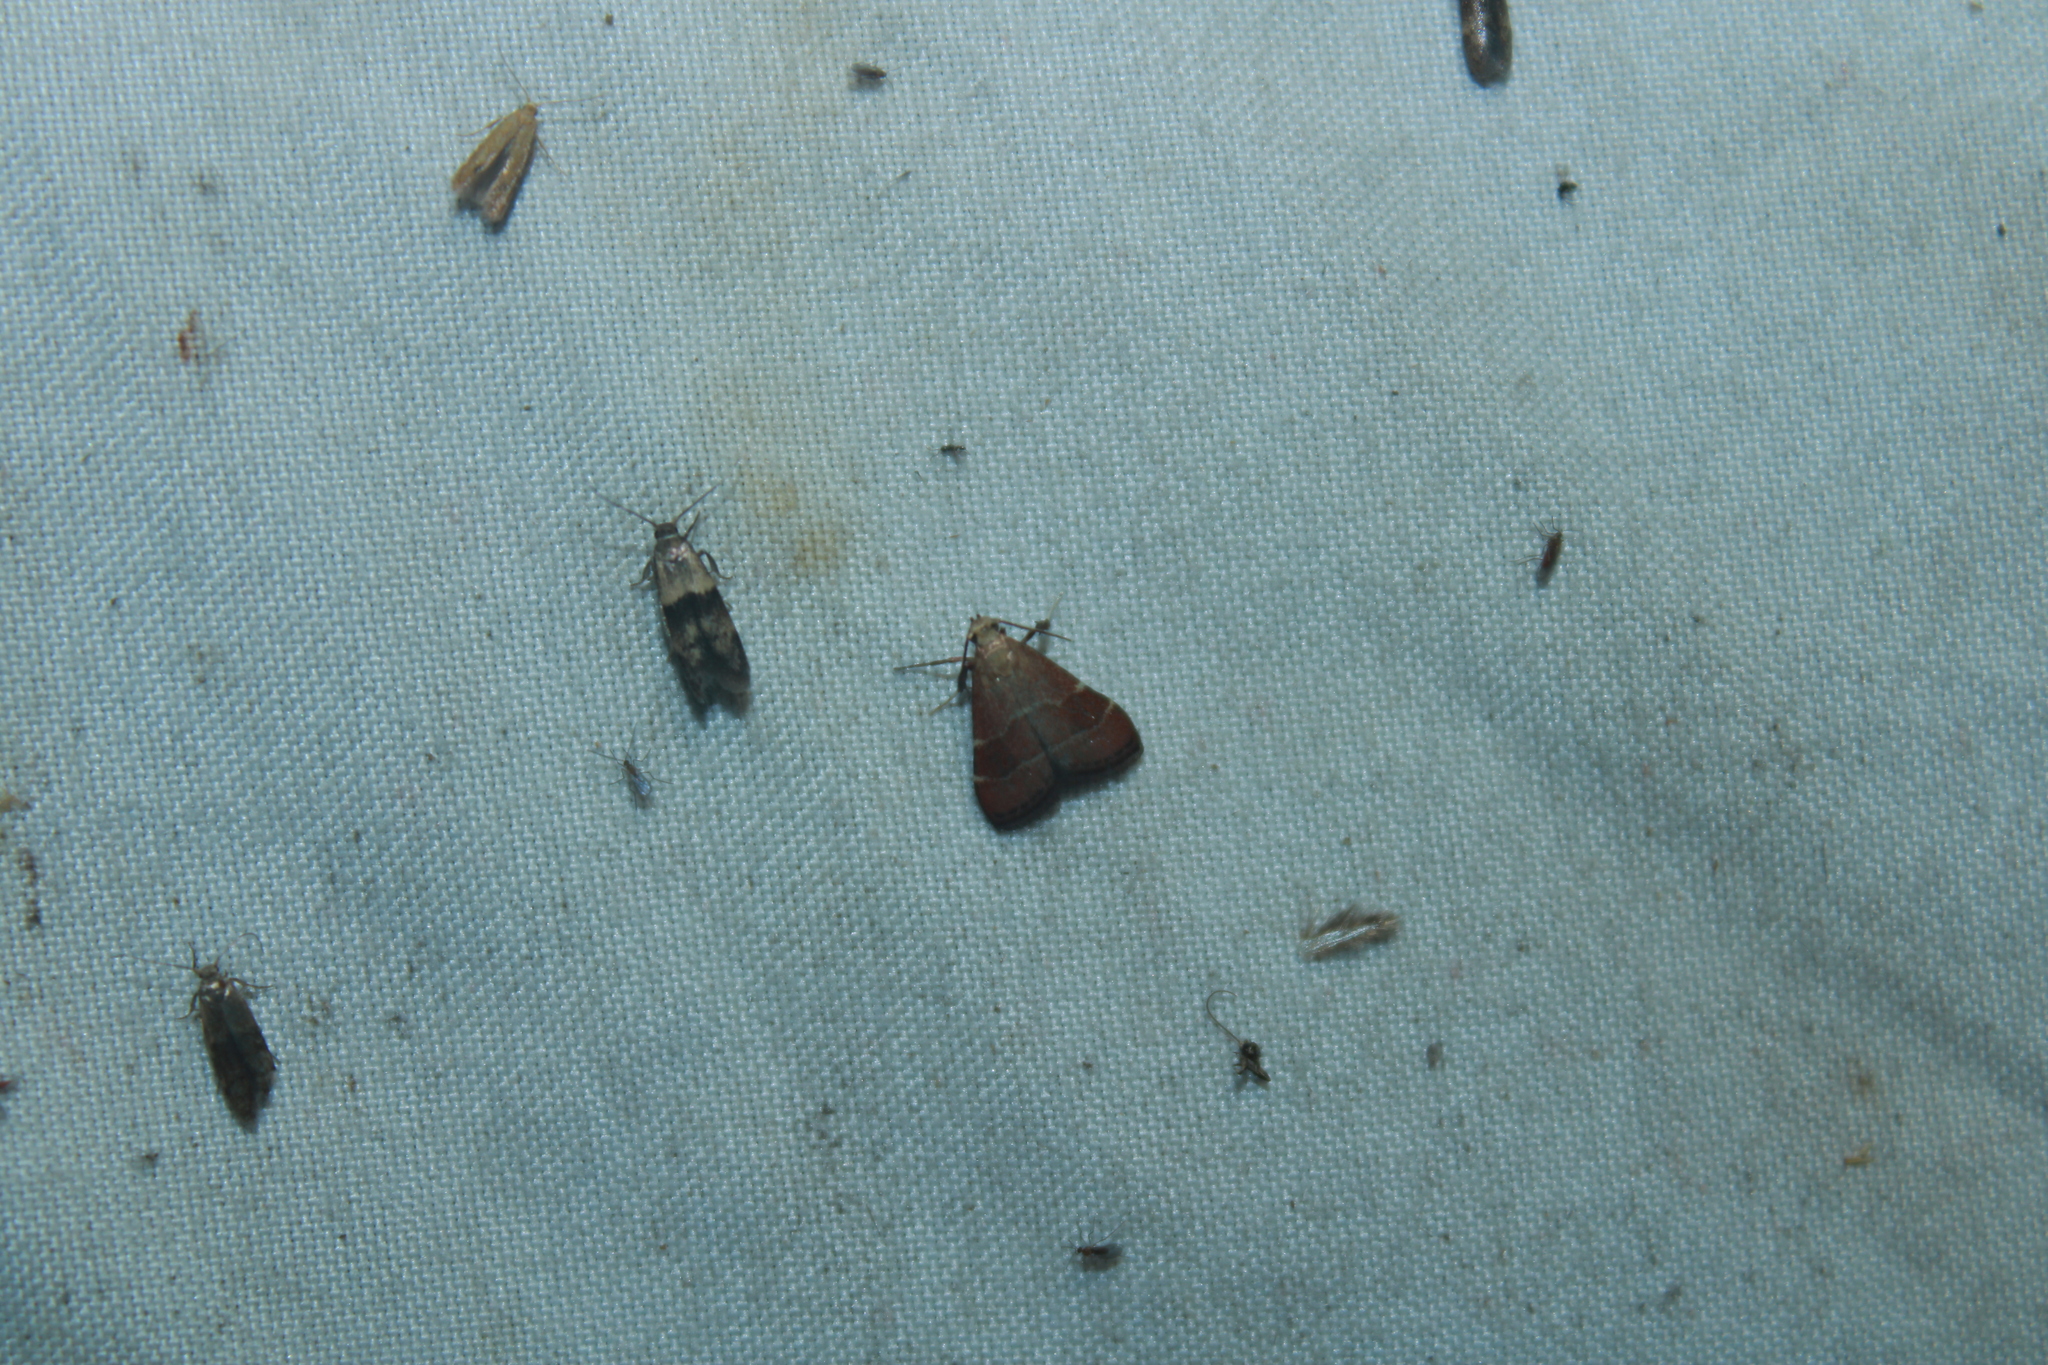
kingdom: Animalia
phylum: Arthropoda
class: Insecta
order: Lepidoptera
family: Pyralidae
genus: Arta
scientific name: Arta statalis
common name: Posturing arta moth
